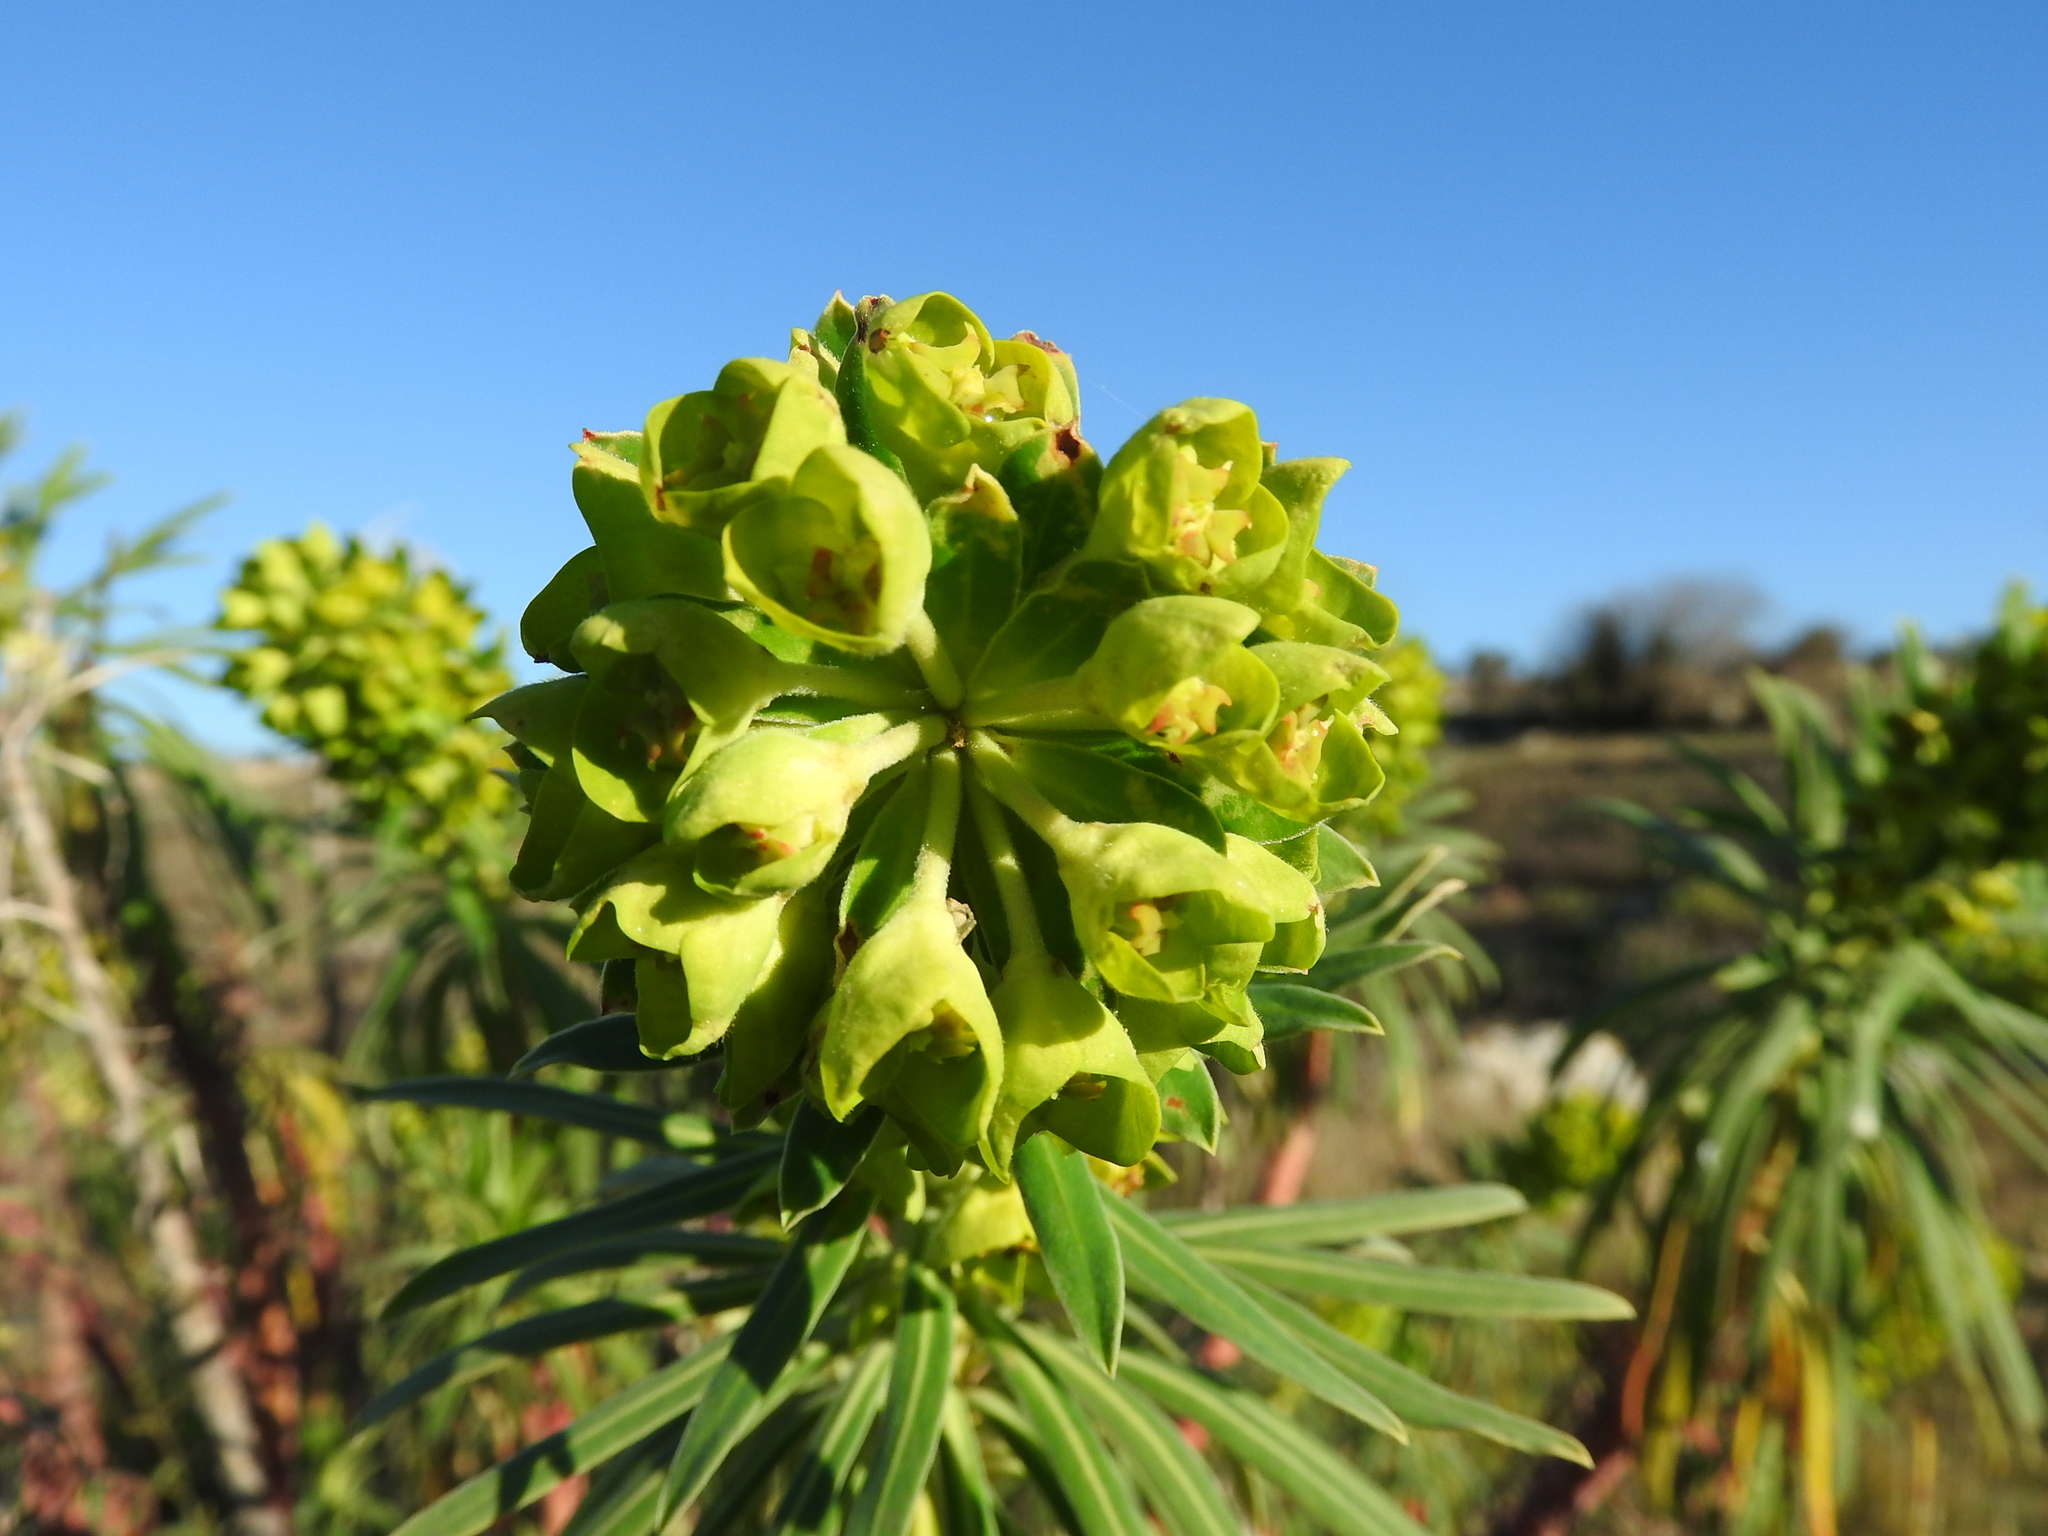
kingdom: Plantae
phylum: Tracheophyta
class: Magnoliopsida
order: Malpighiales
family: Euphorbiaceae
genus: Euphorbia
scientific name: Euphorbia characias
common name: Mediterranean spurge
